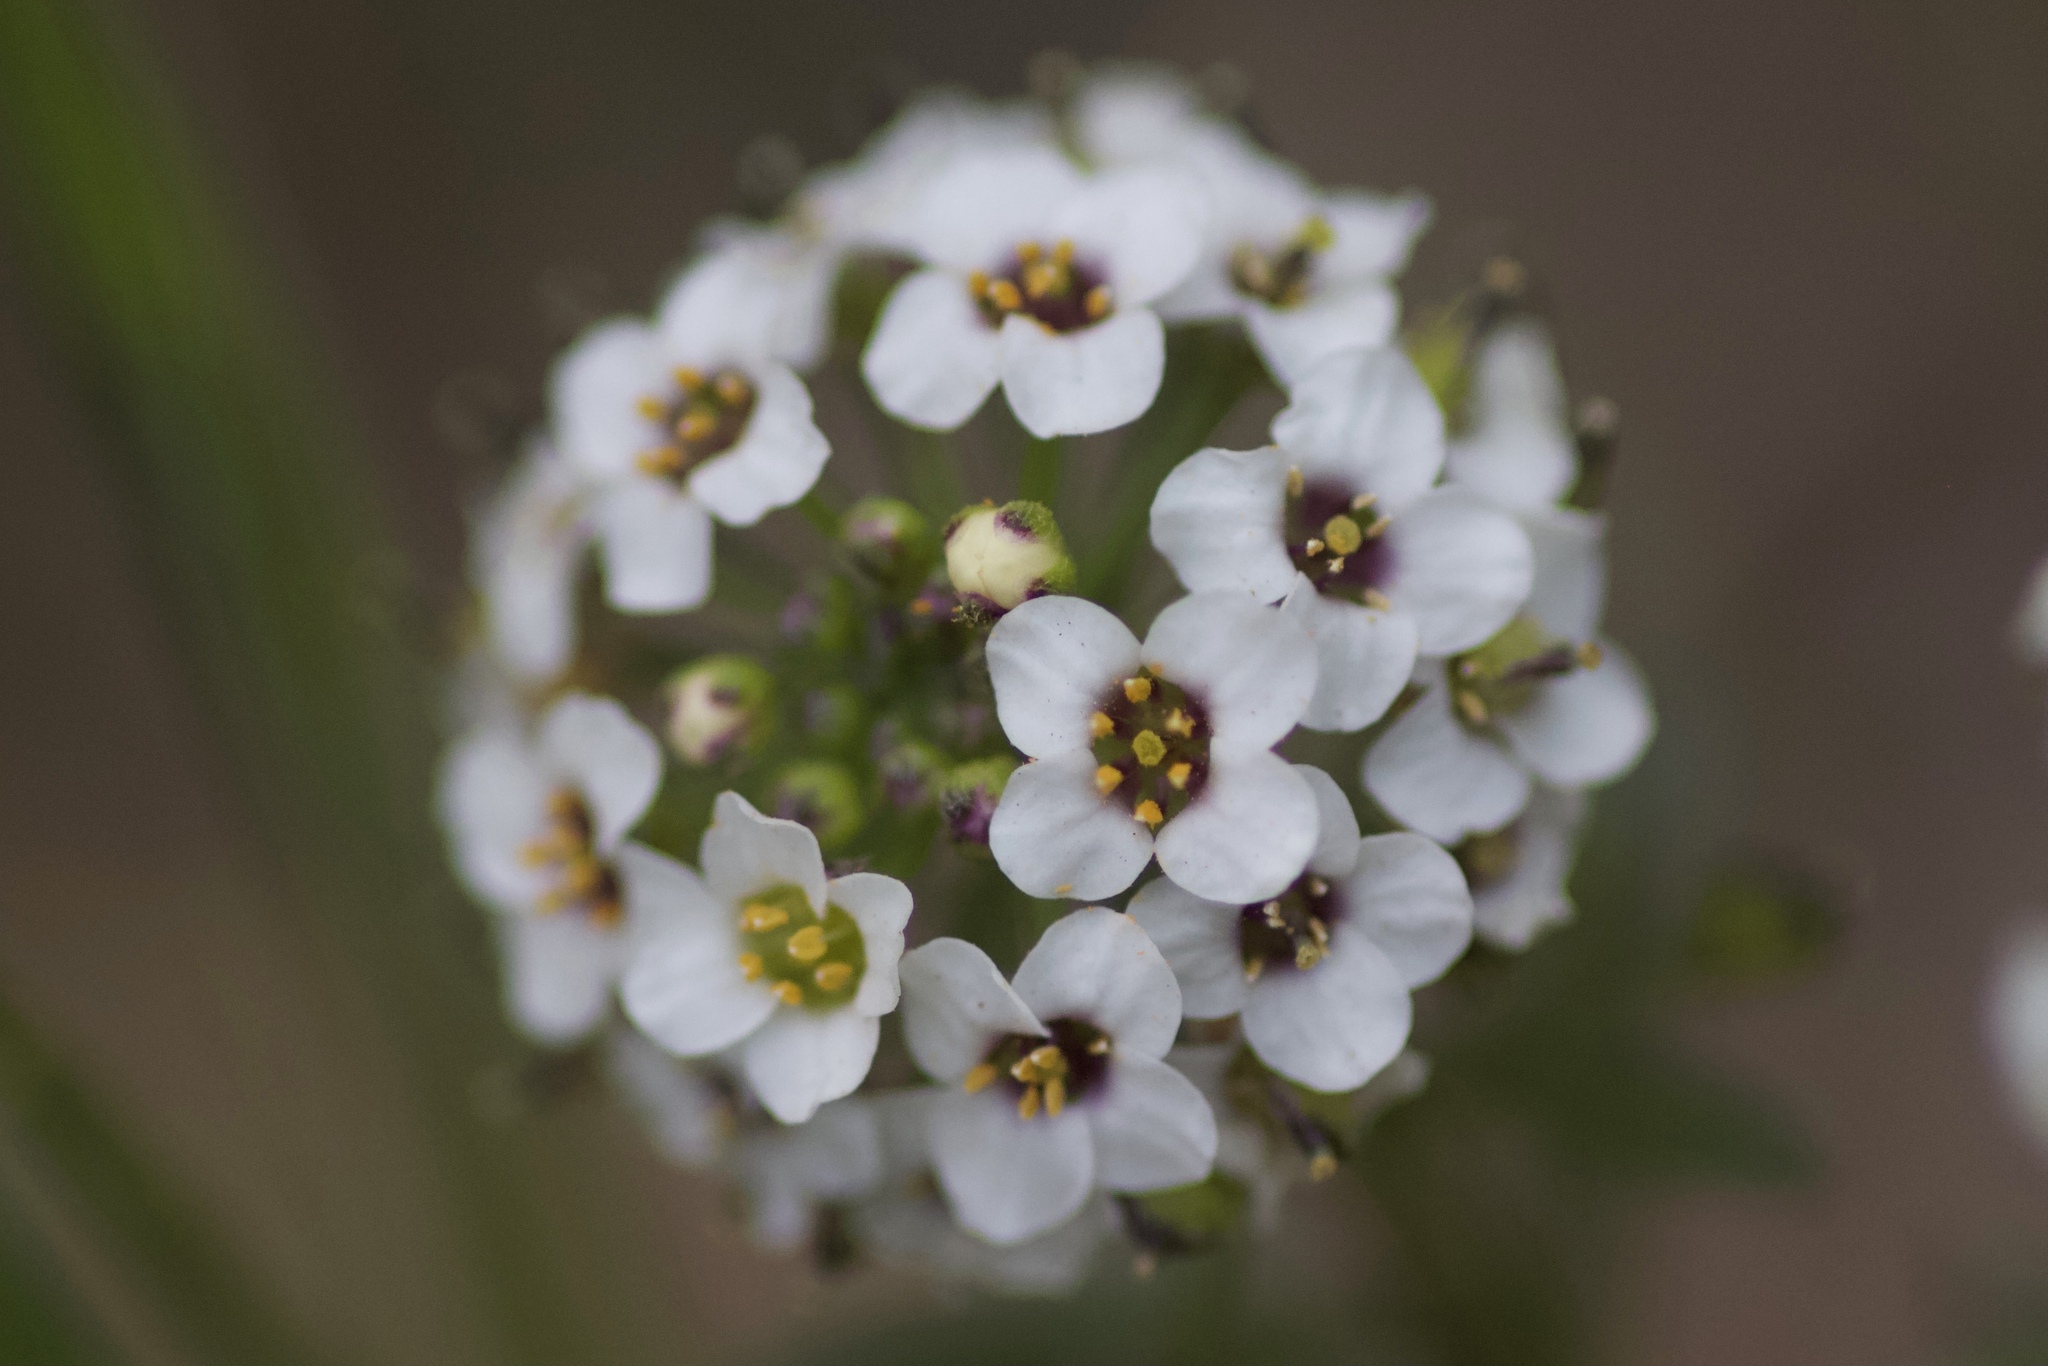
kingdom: Plantae
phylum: Tracheophyta
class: Magnoliopsida
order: Brassicales
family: Brassicaceae
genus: Lobularia
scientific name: Lobularia maritima
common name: Sweet alison
